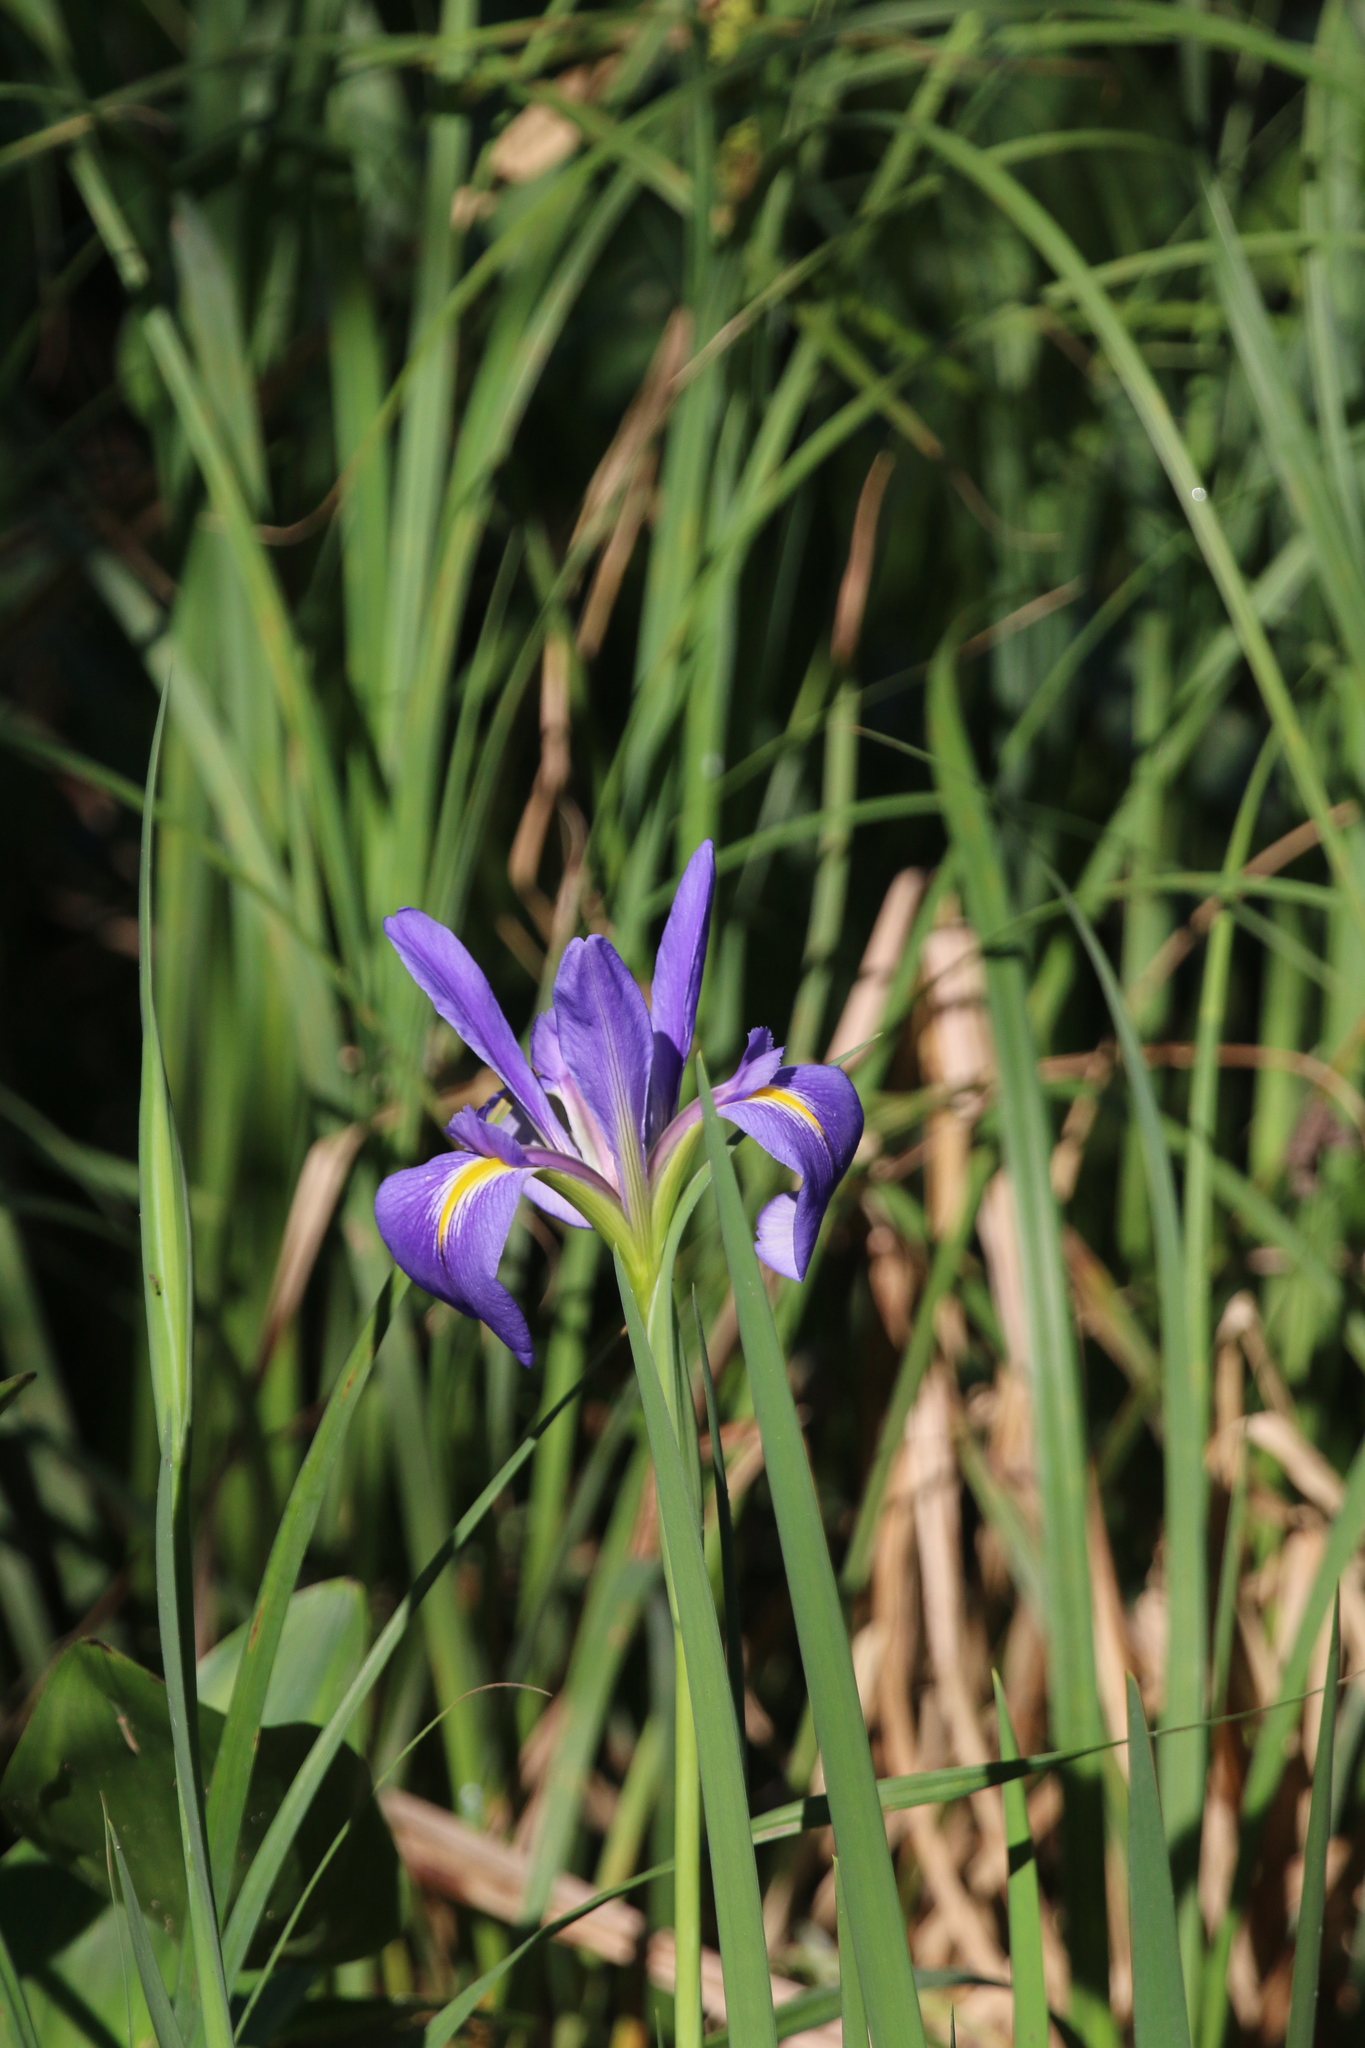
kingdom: Plantae
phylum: Tracheophyta
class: Liliopsida
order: Asparagales
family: Iridaceae
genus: Iris
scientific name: Iris giganticaerulea
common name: Giant blue iris
